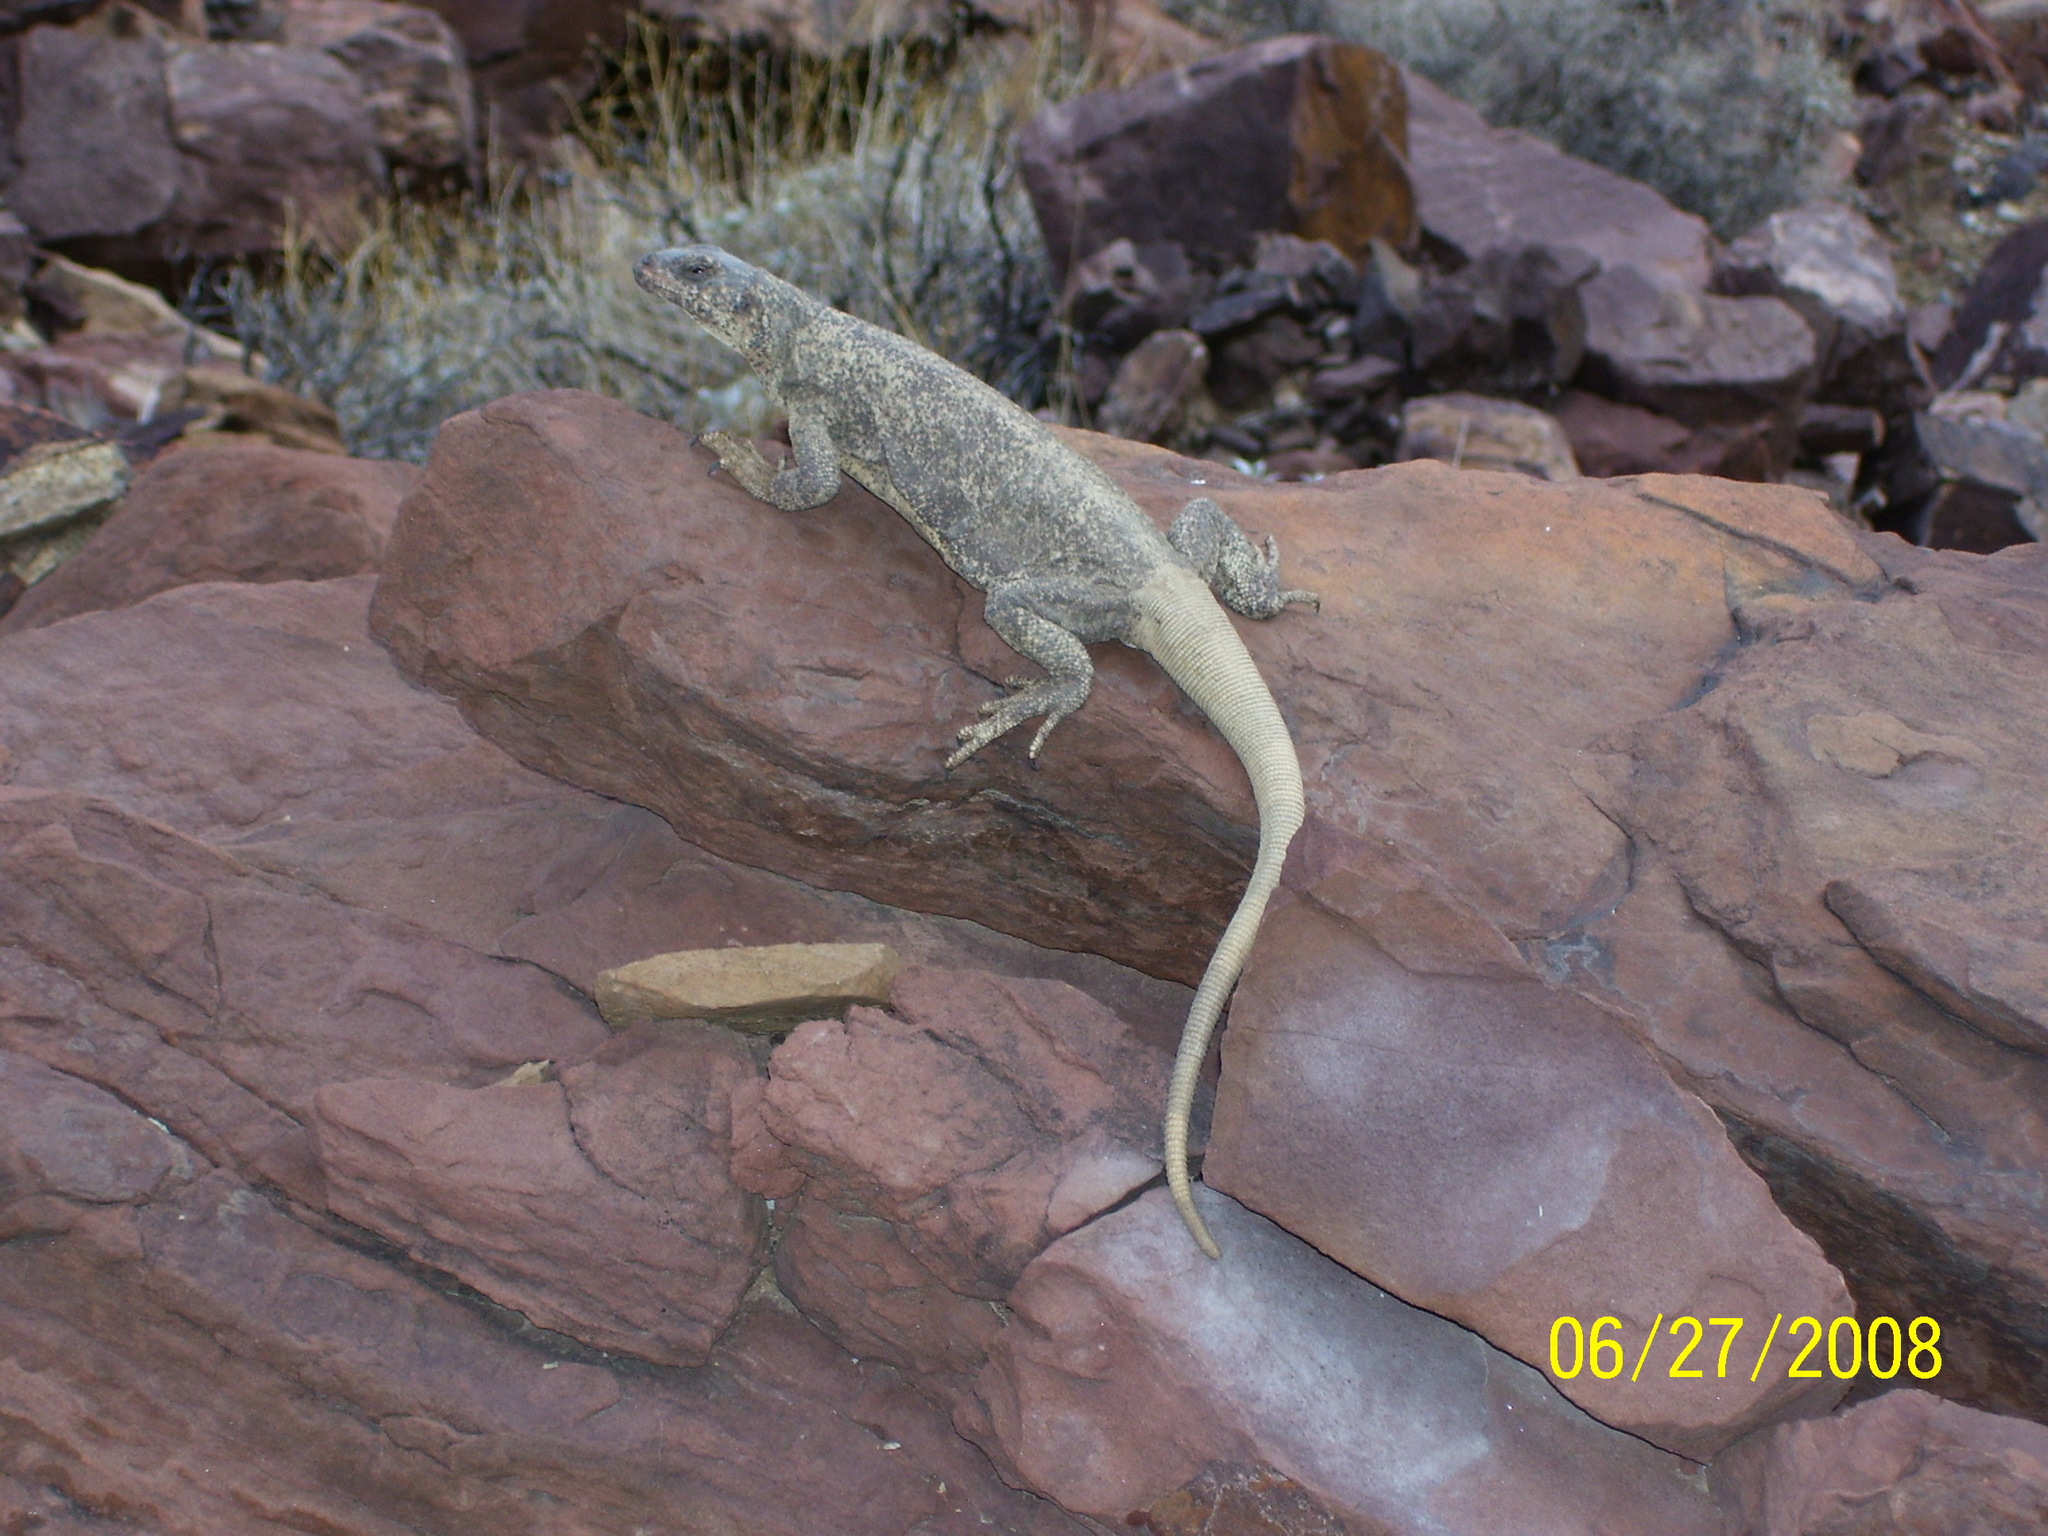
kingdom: Animalia
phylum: Chordata
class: Squamata
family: Iguanidae
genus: Sauromalus
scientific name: Sauromalus ater
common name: Northern chuckwalla
